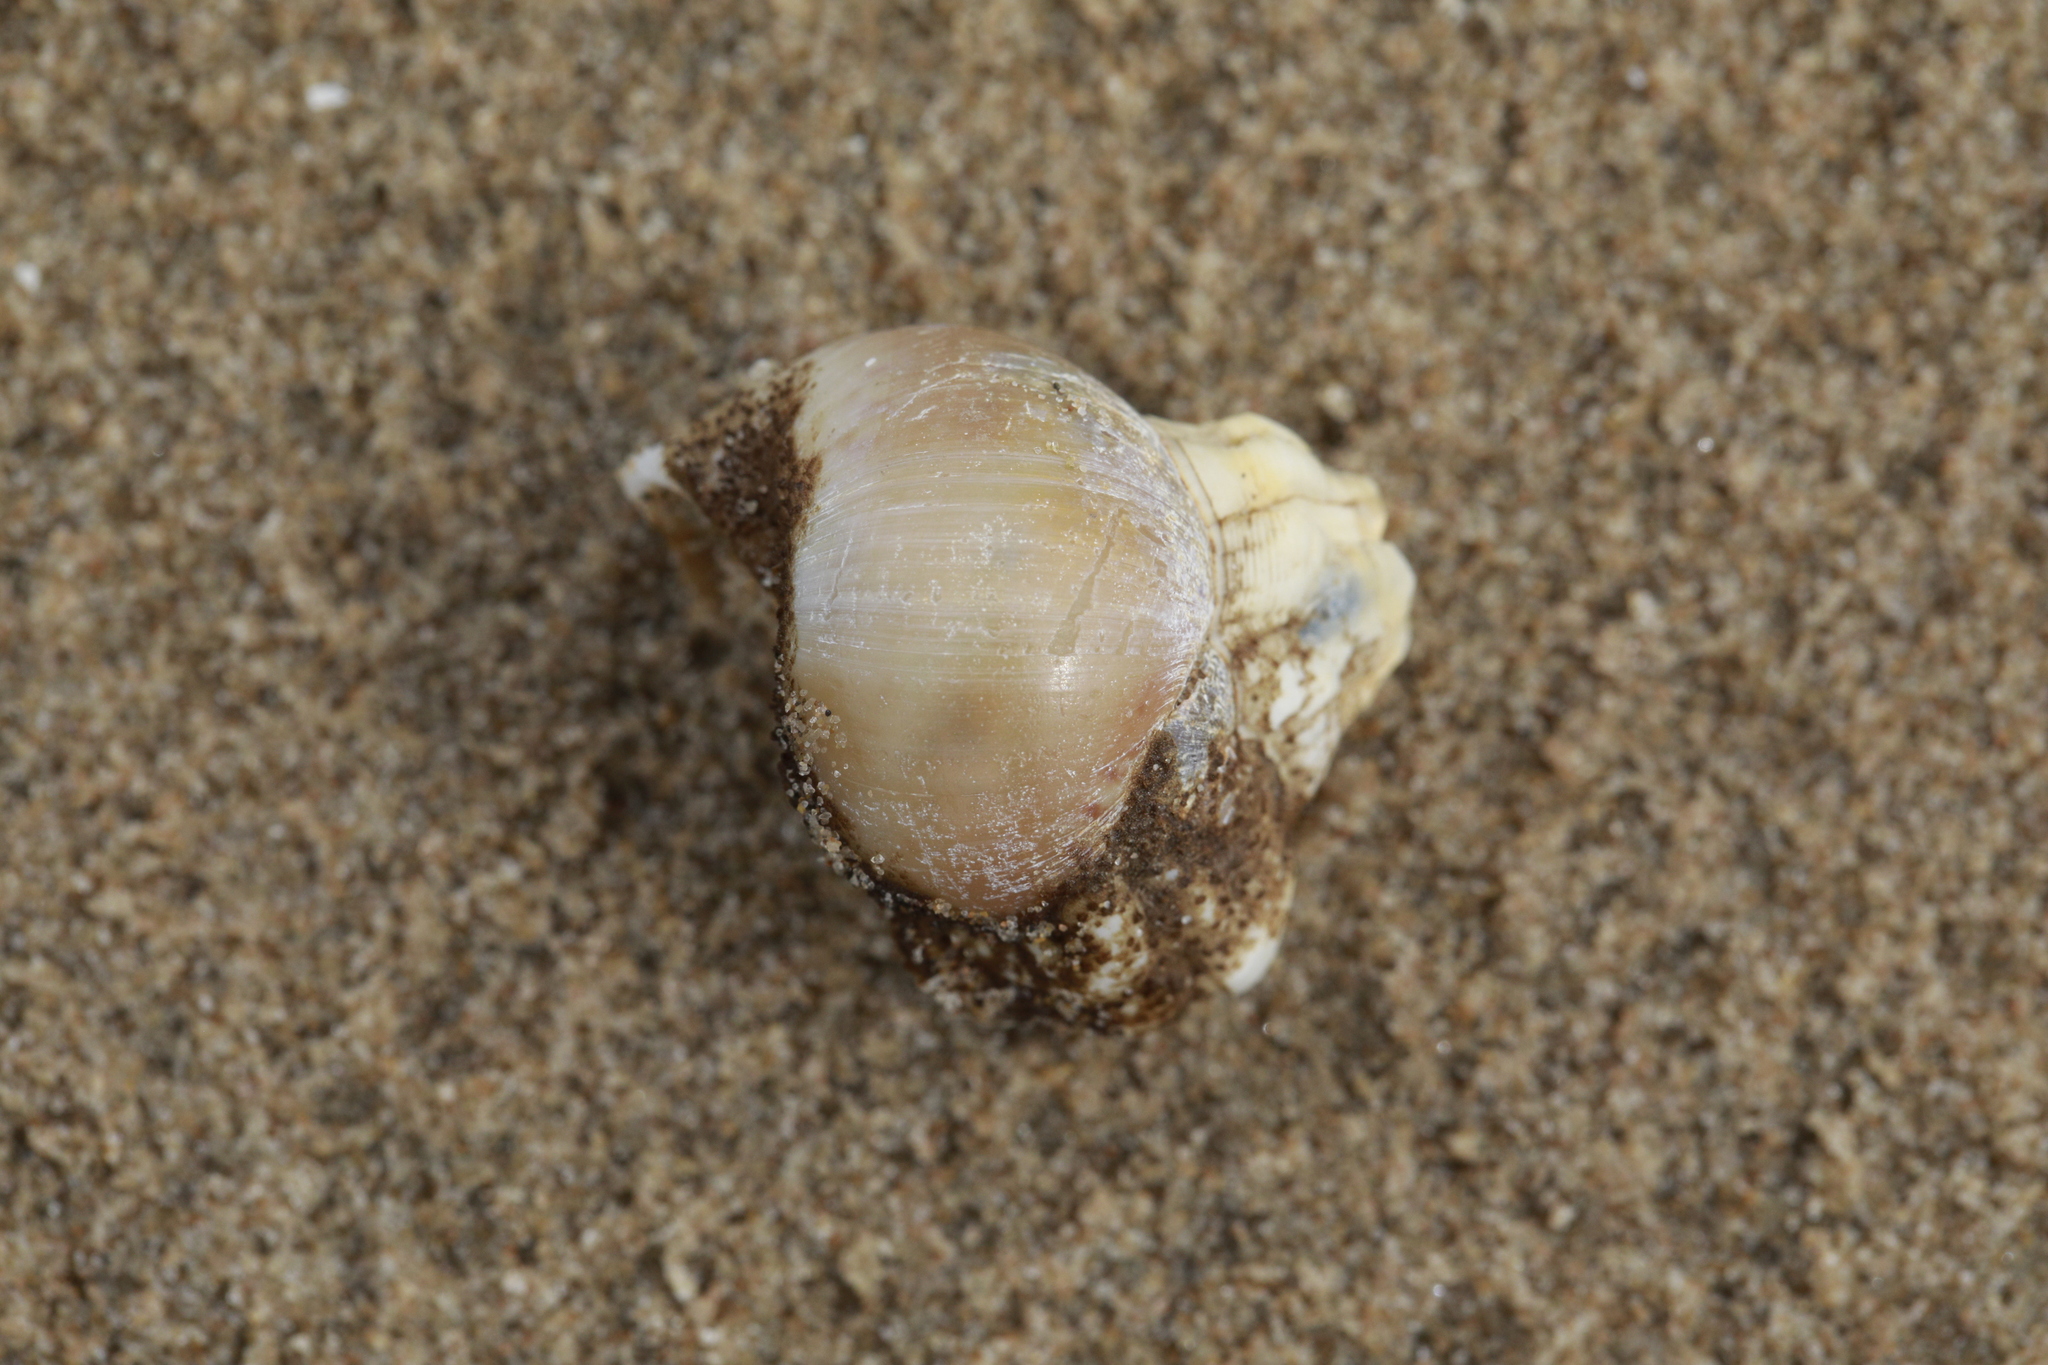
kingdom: Animalia
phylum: Mollusca
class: Gastropoda
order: Littorinimorpha
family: Naticidae
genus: Euspira
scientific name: Euspira catena
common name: Necklace shell
